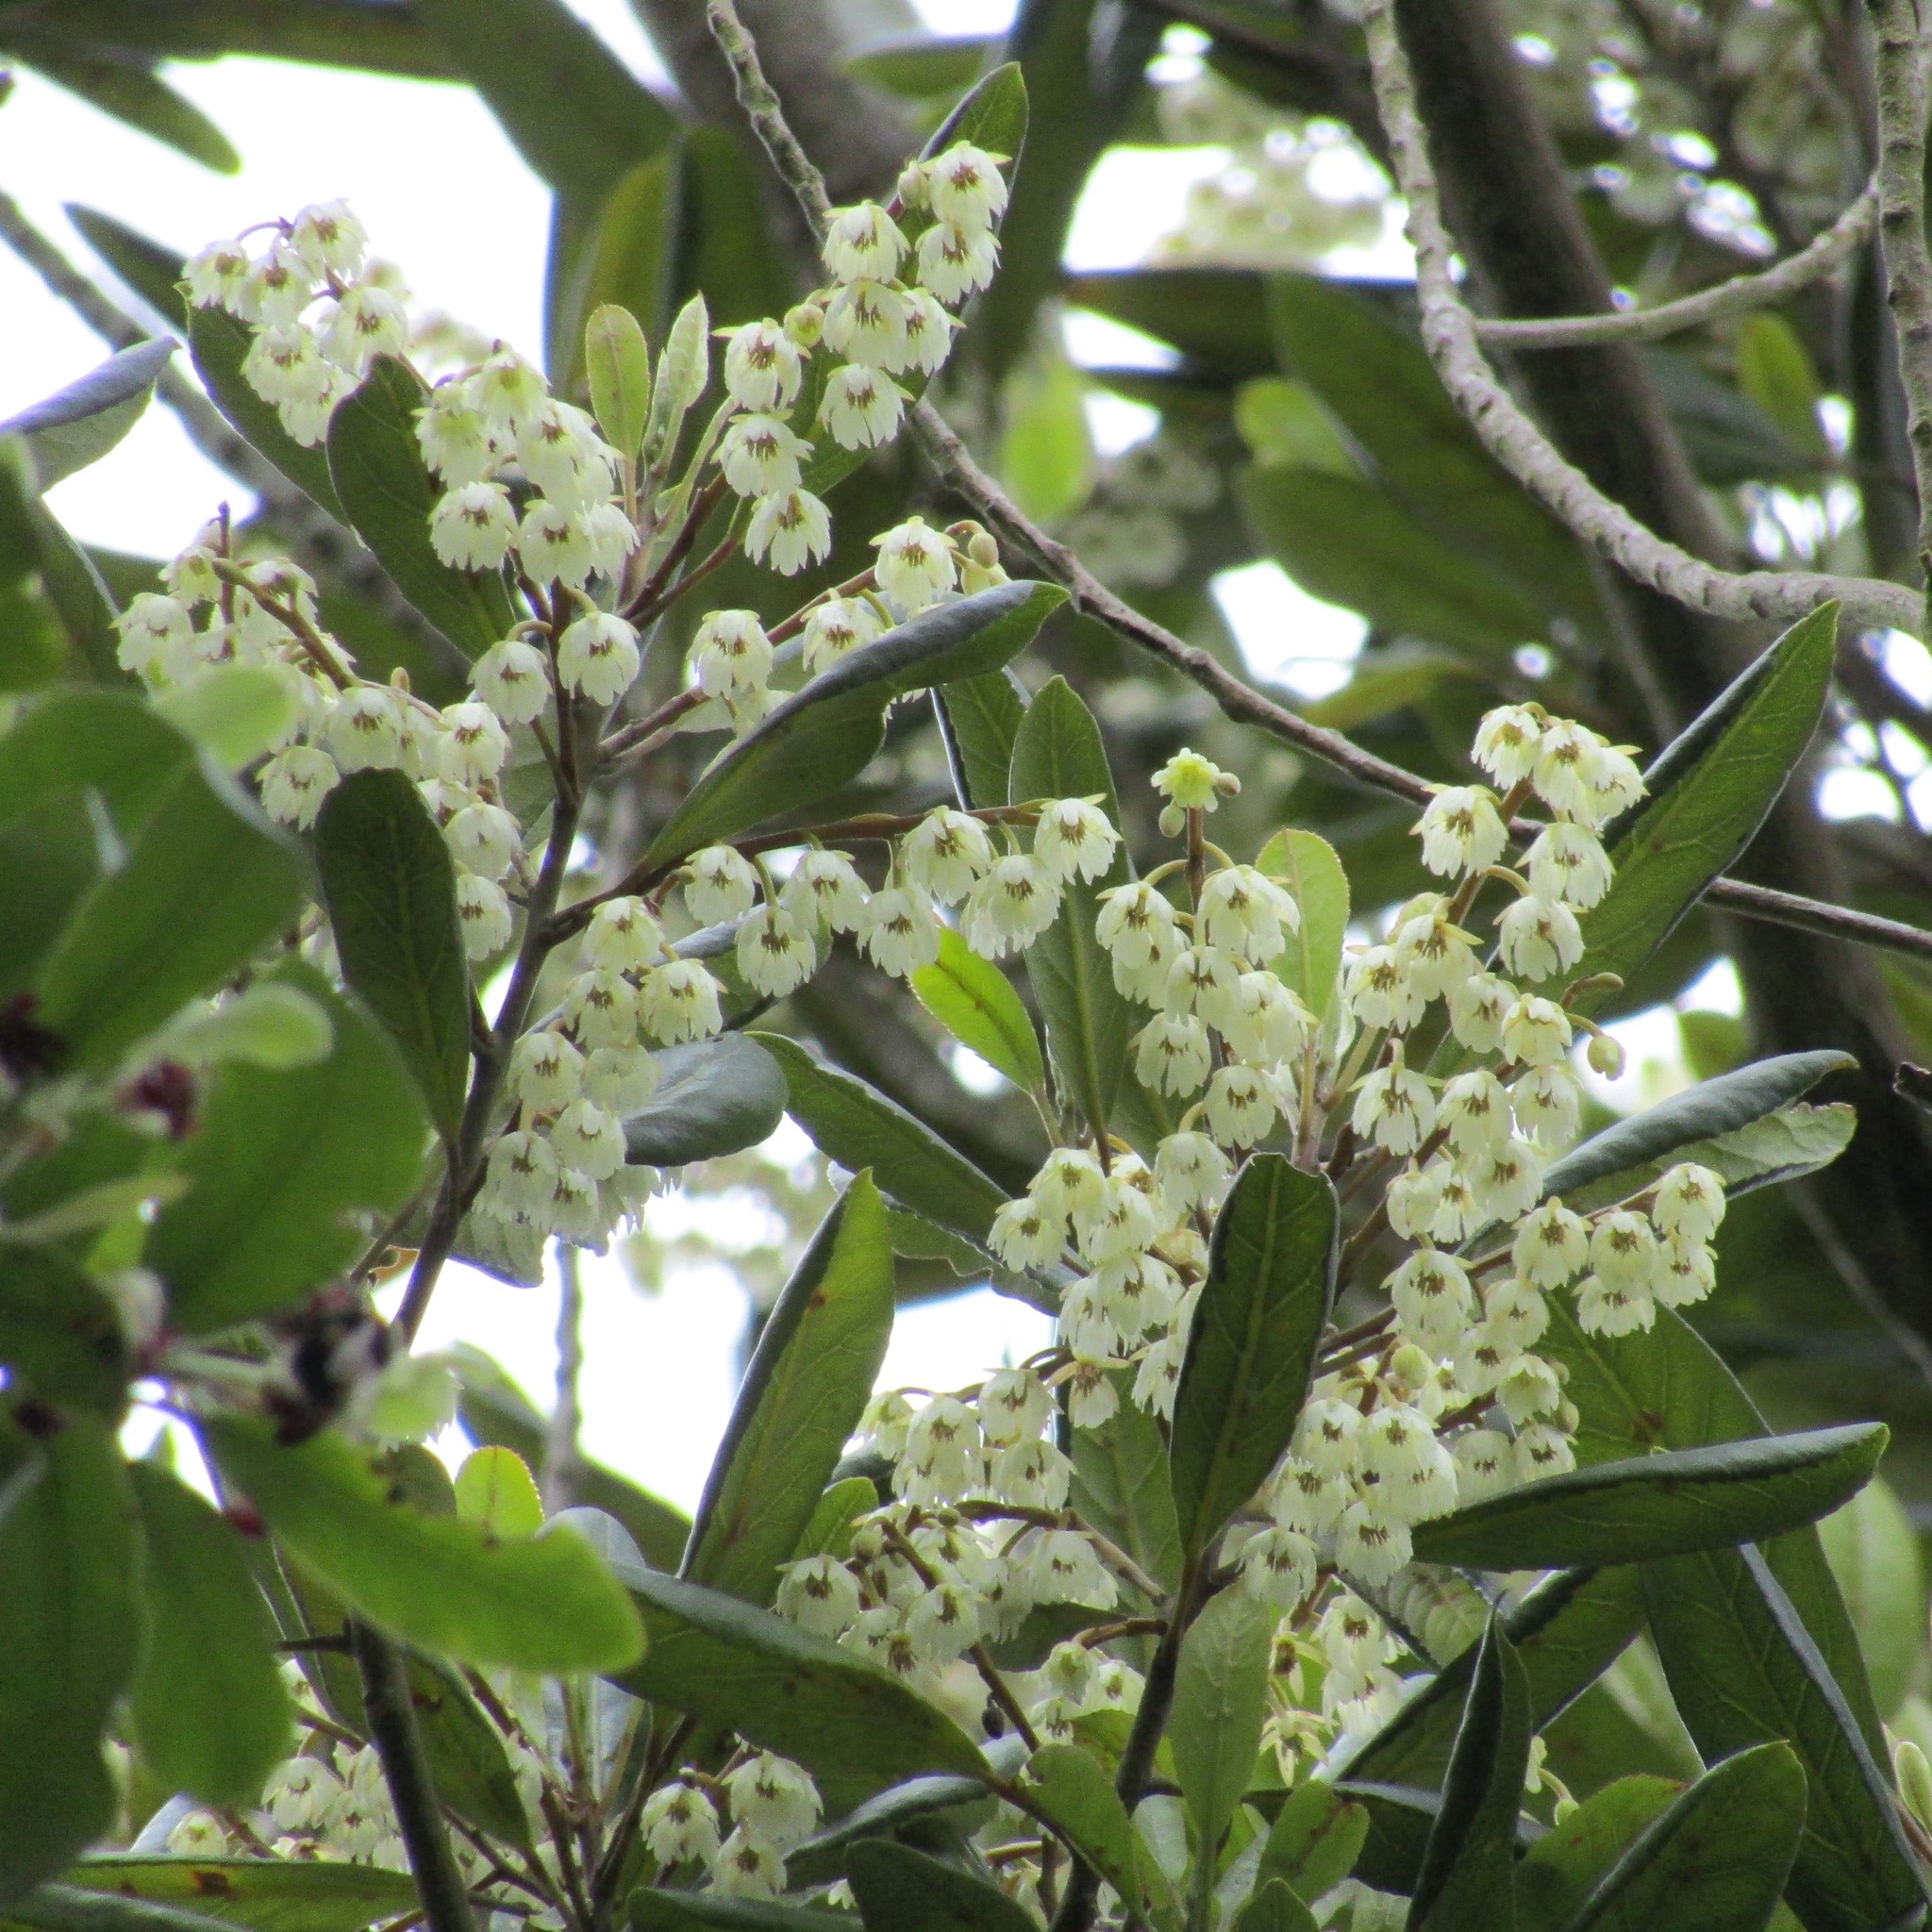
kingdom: Plantae
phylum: Tracheophyta
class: Magnoliopsida
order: Oxalidales
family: Elaeocarpaceae
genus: Elaeocarpus
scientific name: Elaeocarpus dentatus
